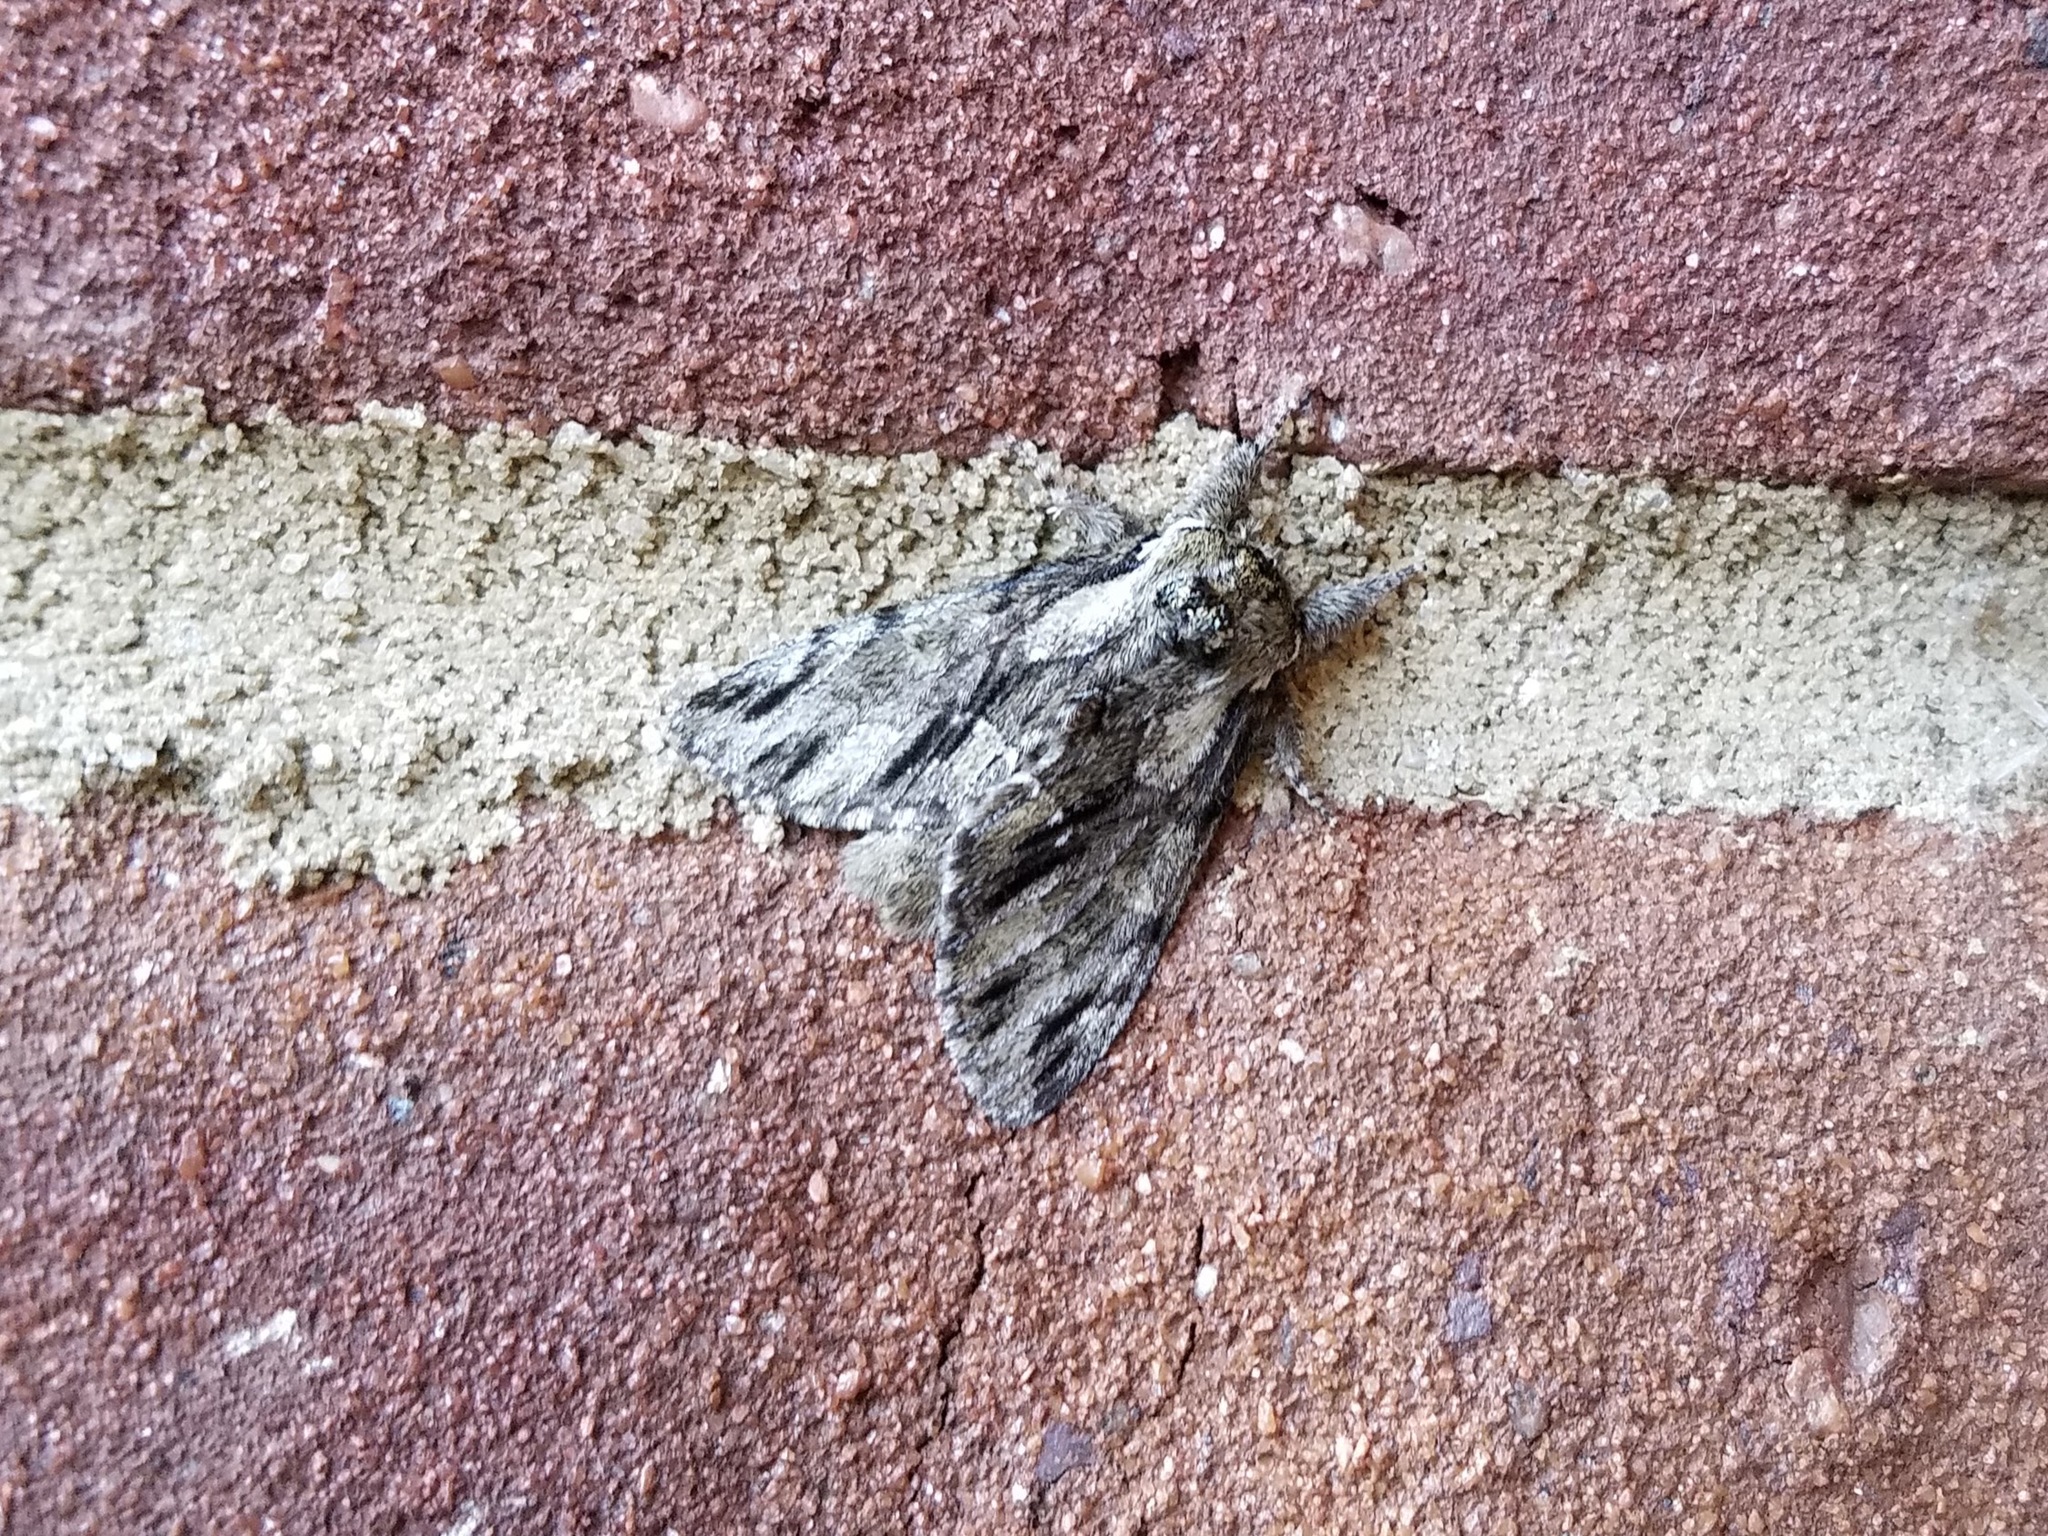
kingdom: Animalia
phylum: Arthropoda
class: Insecta
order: Lepidoptera
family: Notodontidae
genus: Paraeschra
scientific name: Paraeschra georgica
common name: Georgian prominent
